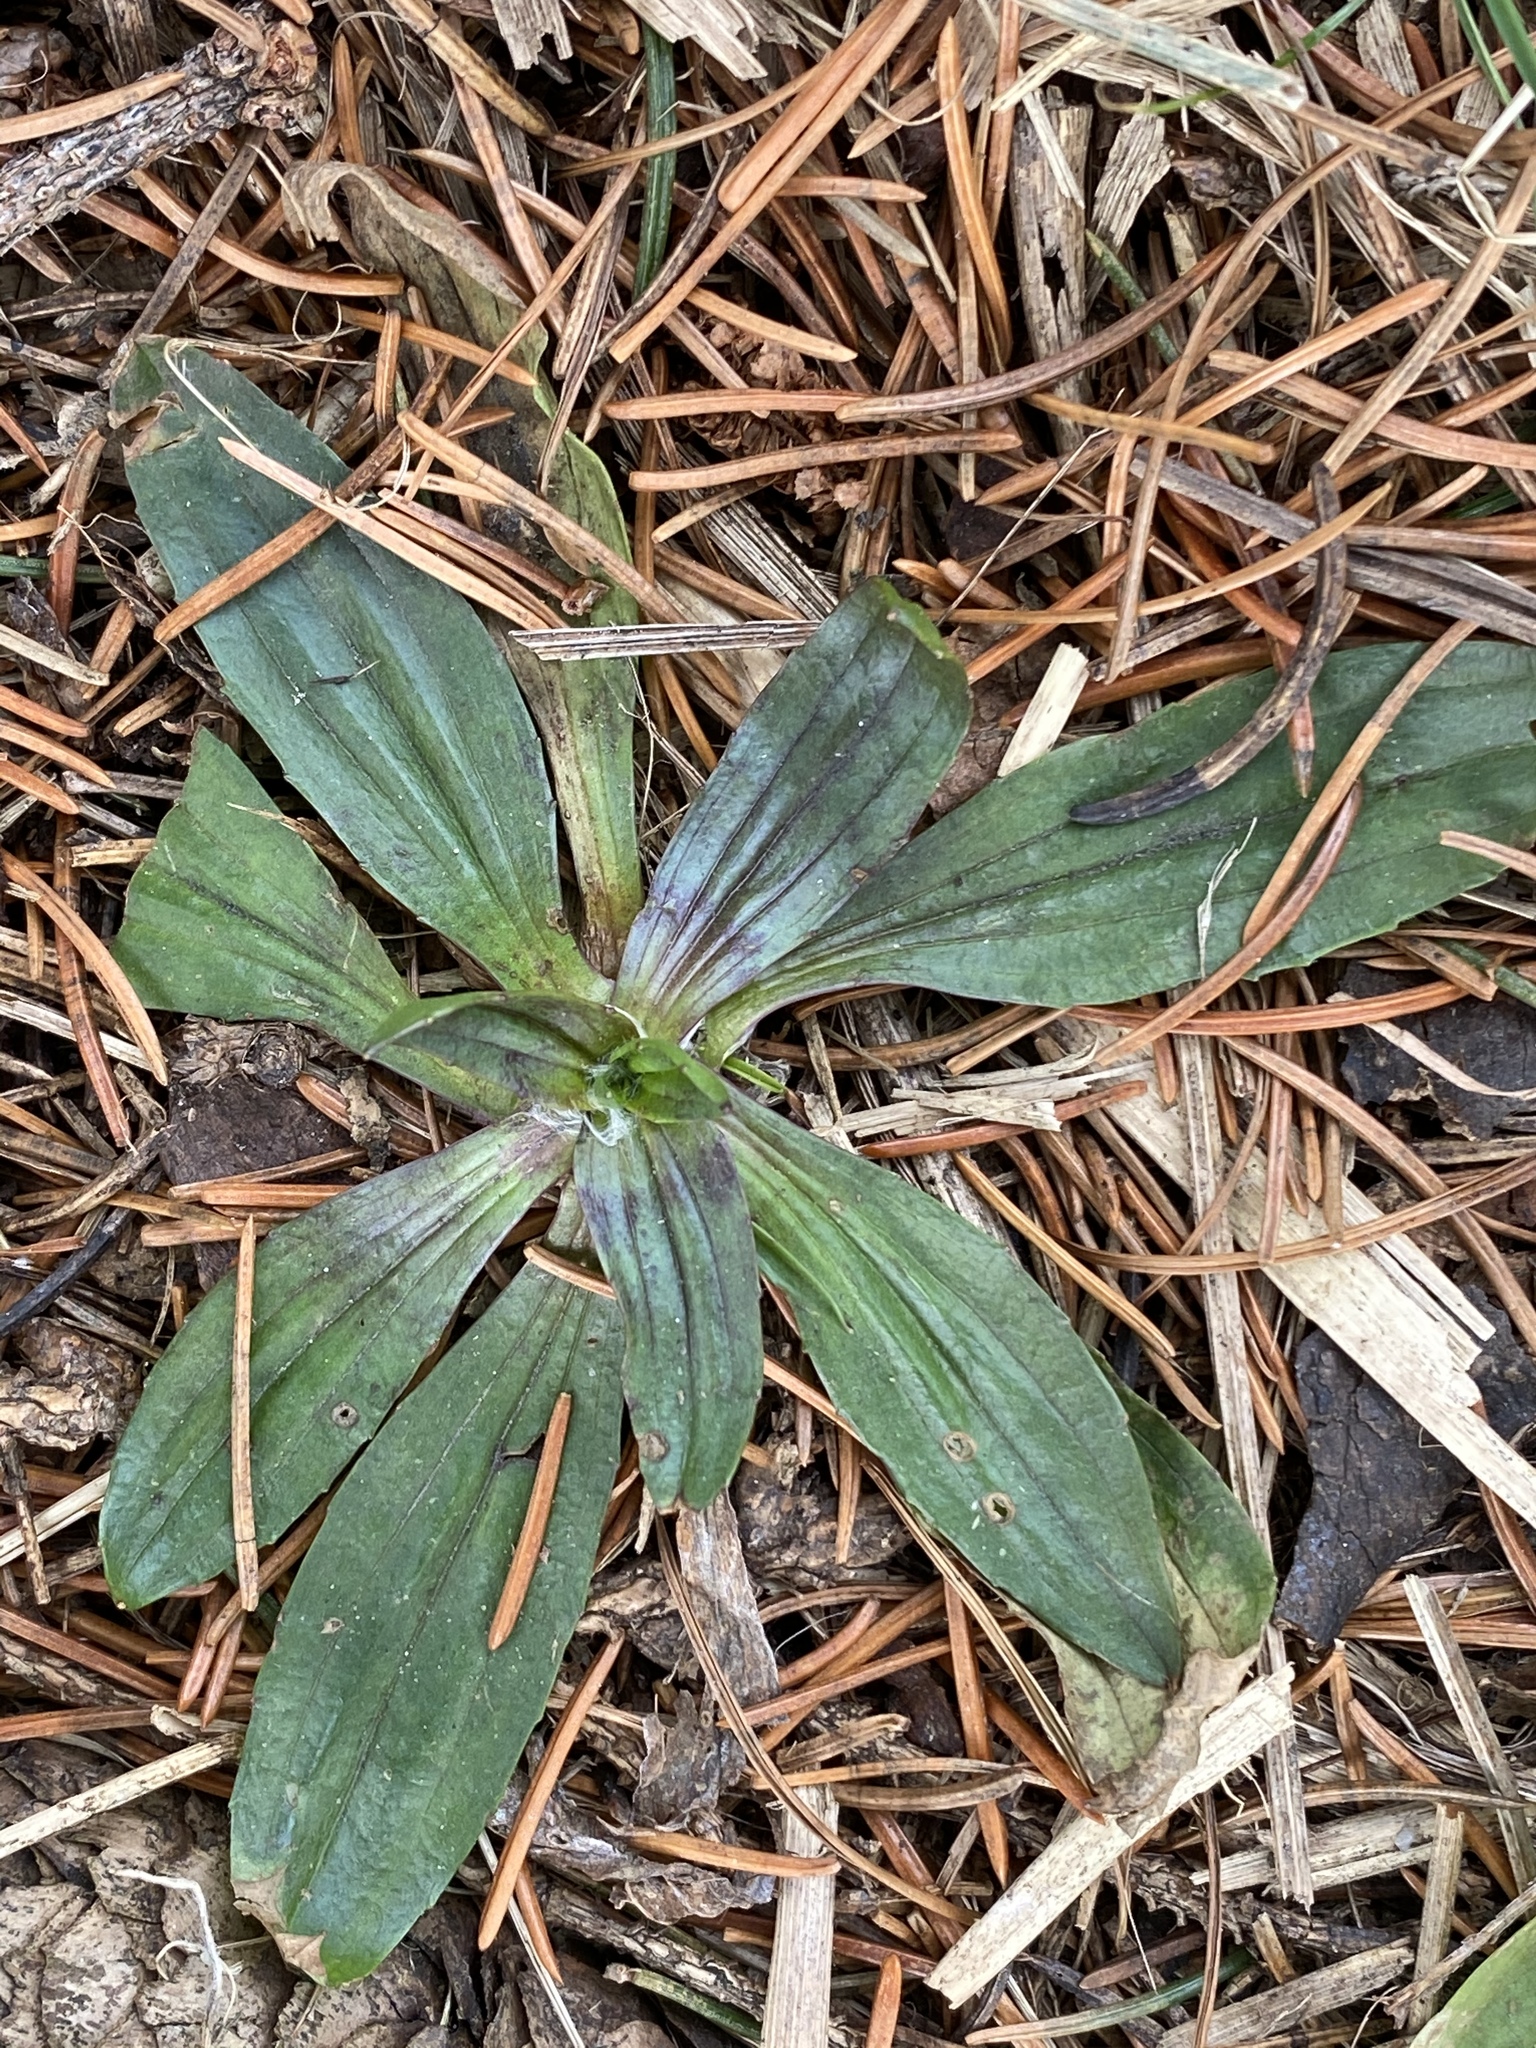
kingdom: Plantae
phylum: Tracheophyta
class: Magnoliopsida
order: Lamiales
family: Plantaginaceae
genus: Plantago
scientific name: Plantago lanceolata
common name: Ribwort plantain
